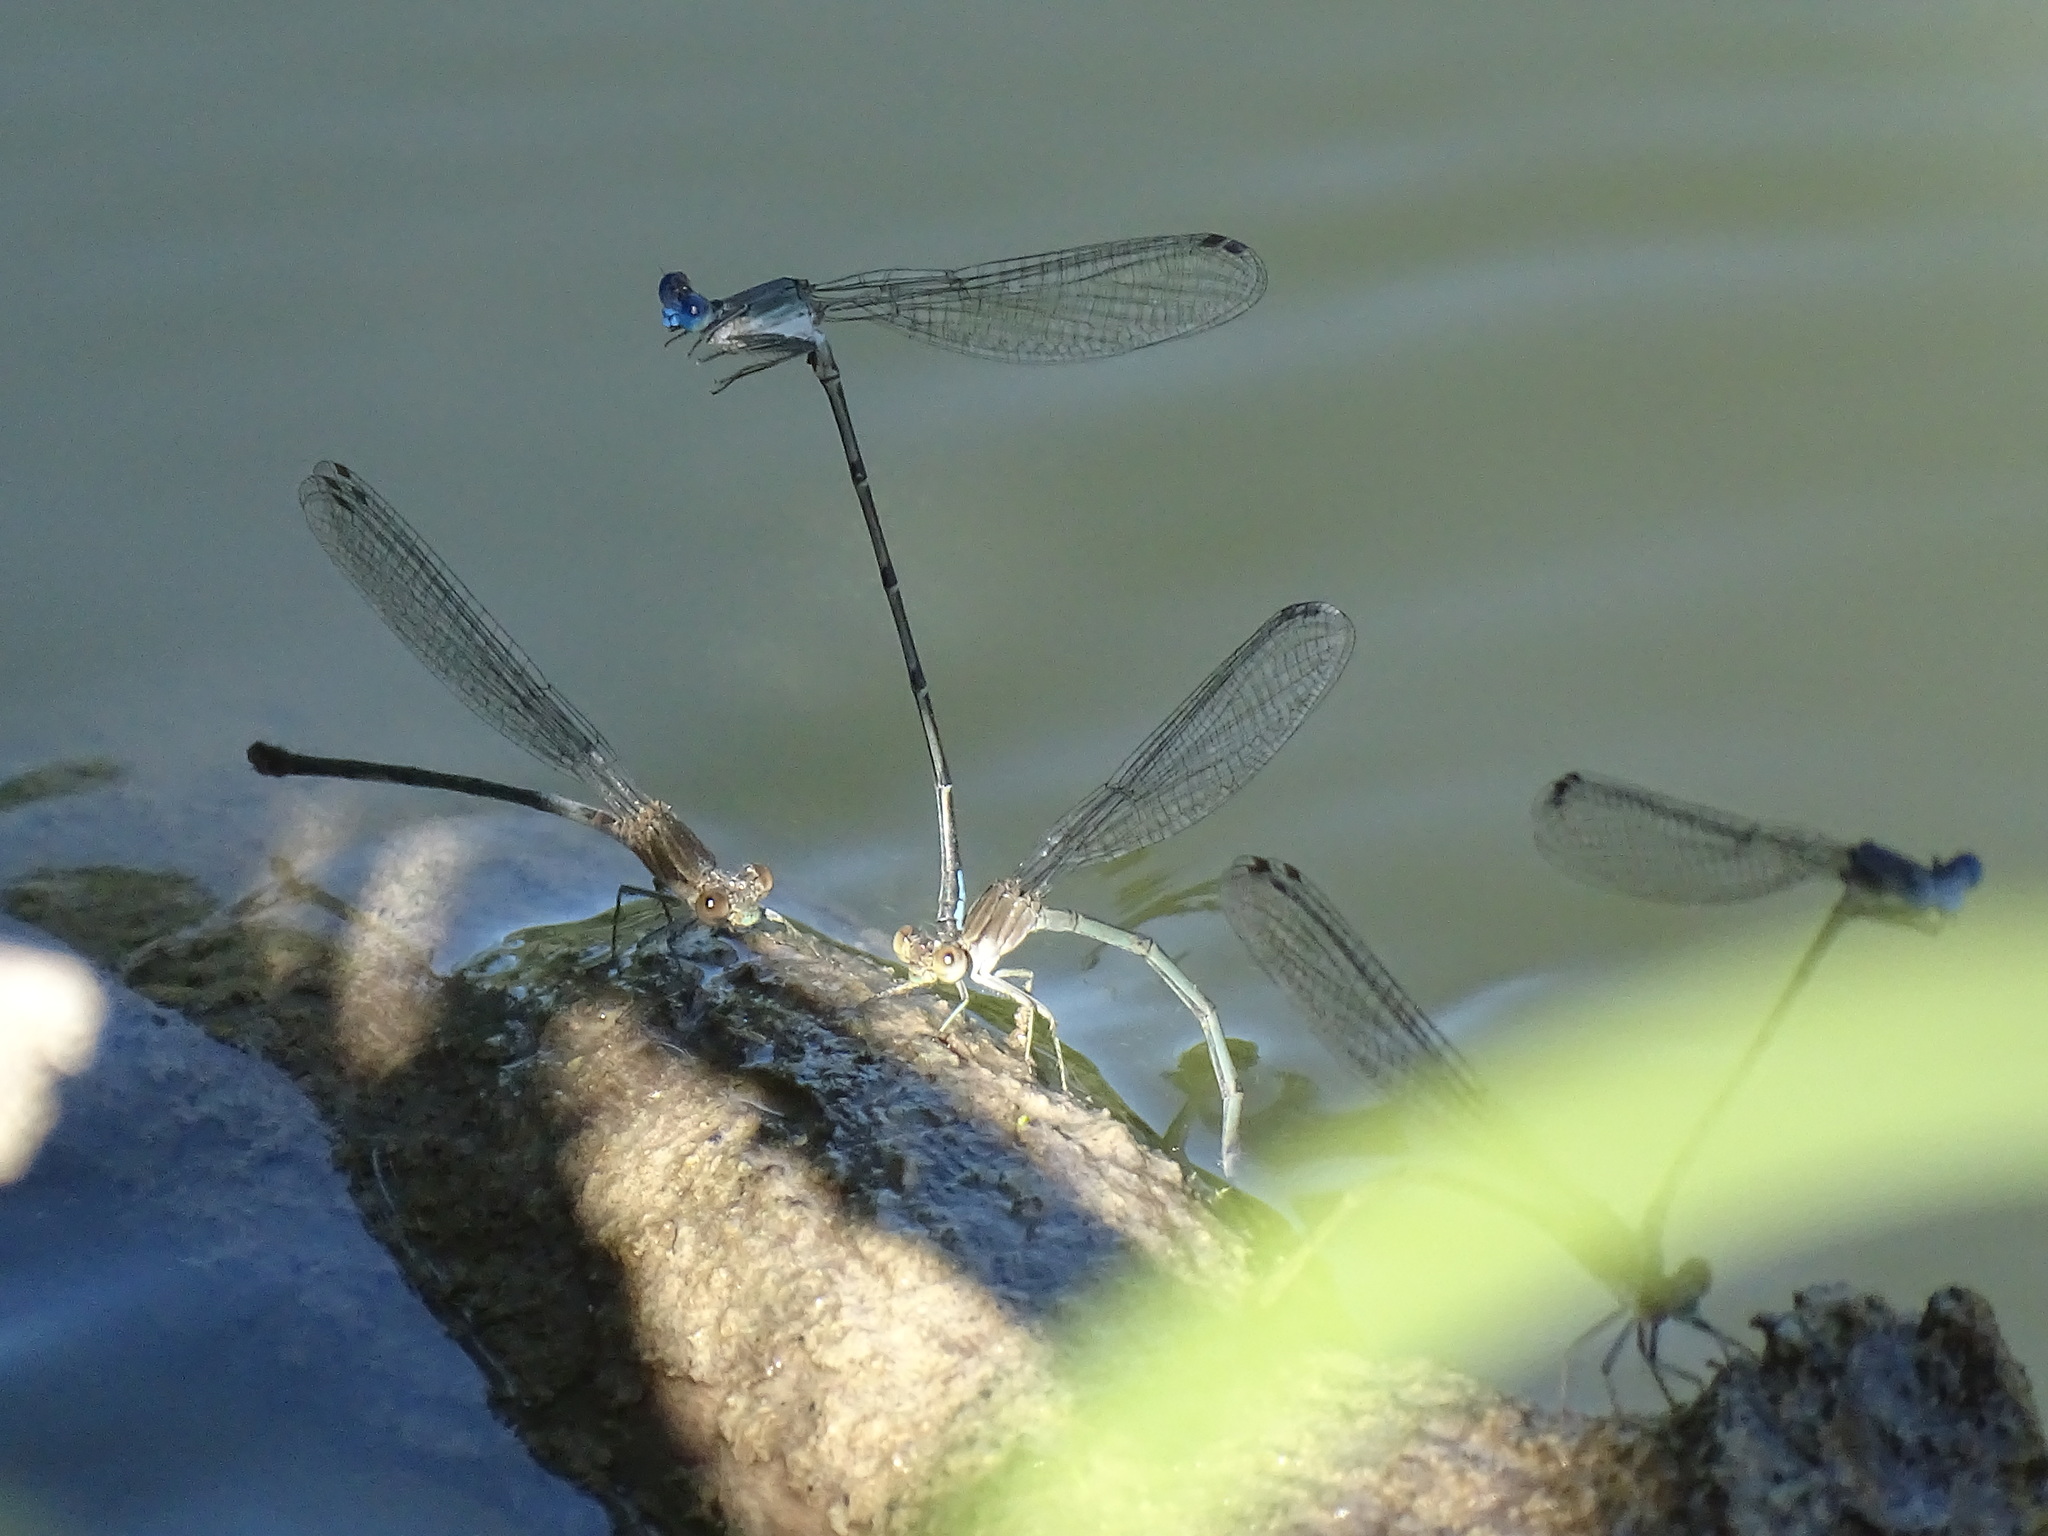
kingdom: Animalia
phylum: Arthropoda
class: Insecta
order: Odonata
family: Coenagrionidae
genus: Argia
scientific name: Argia apicalis
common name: Blue-fronted dancer
